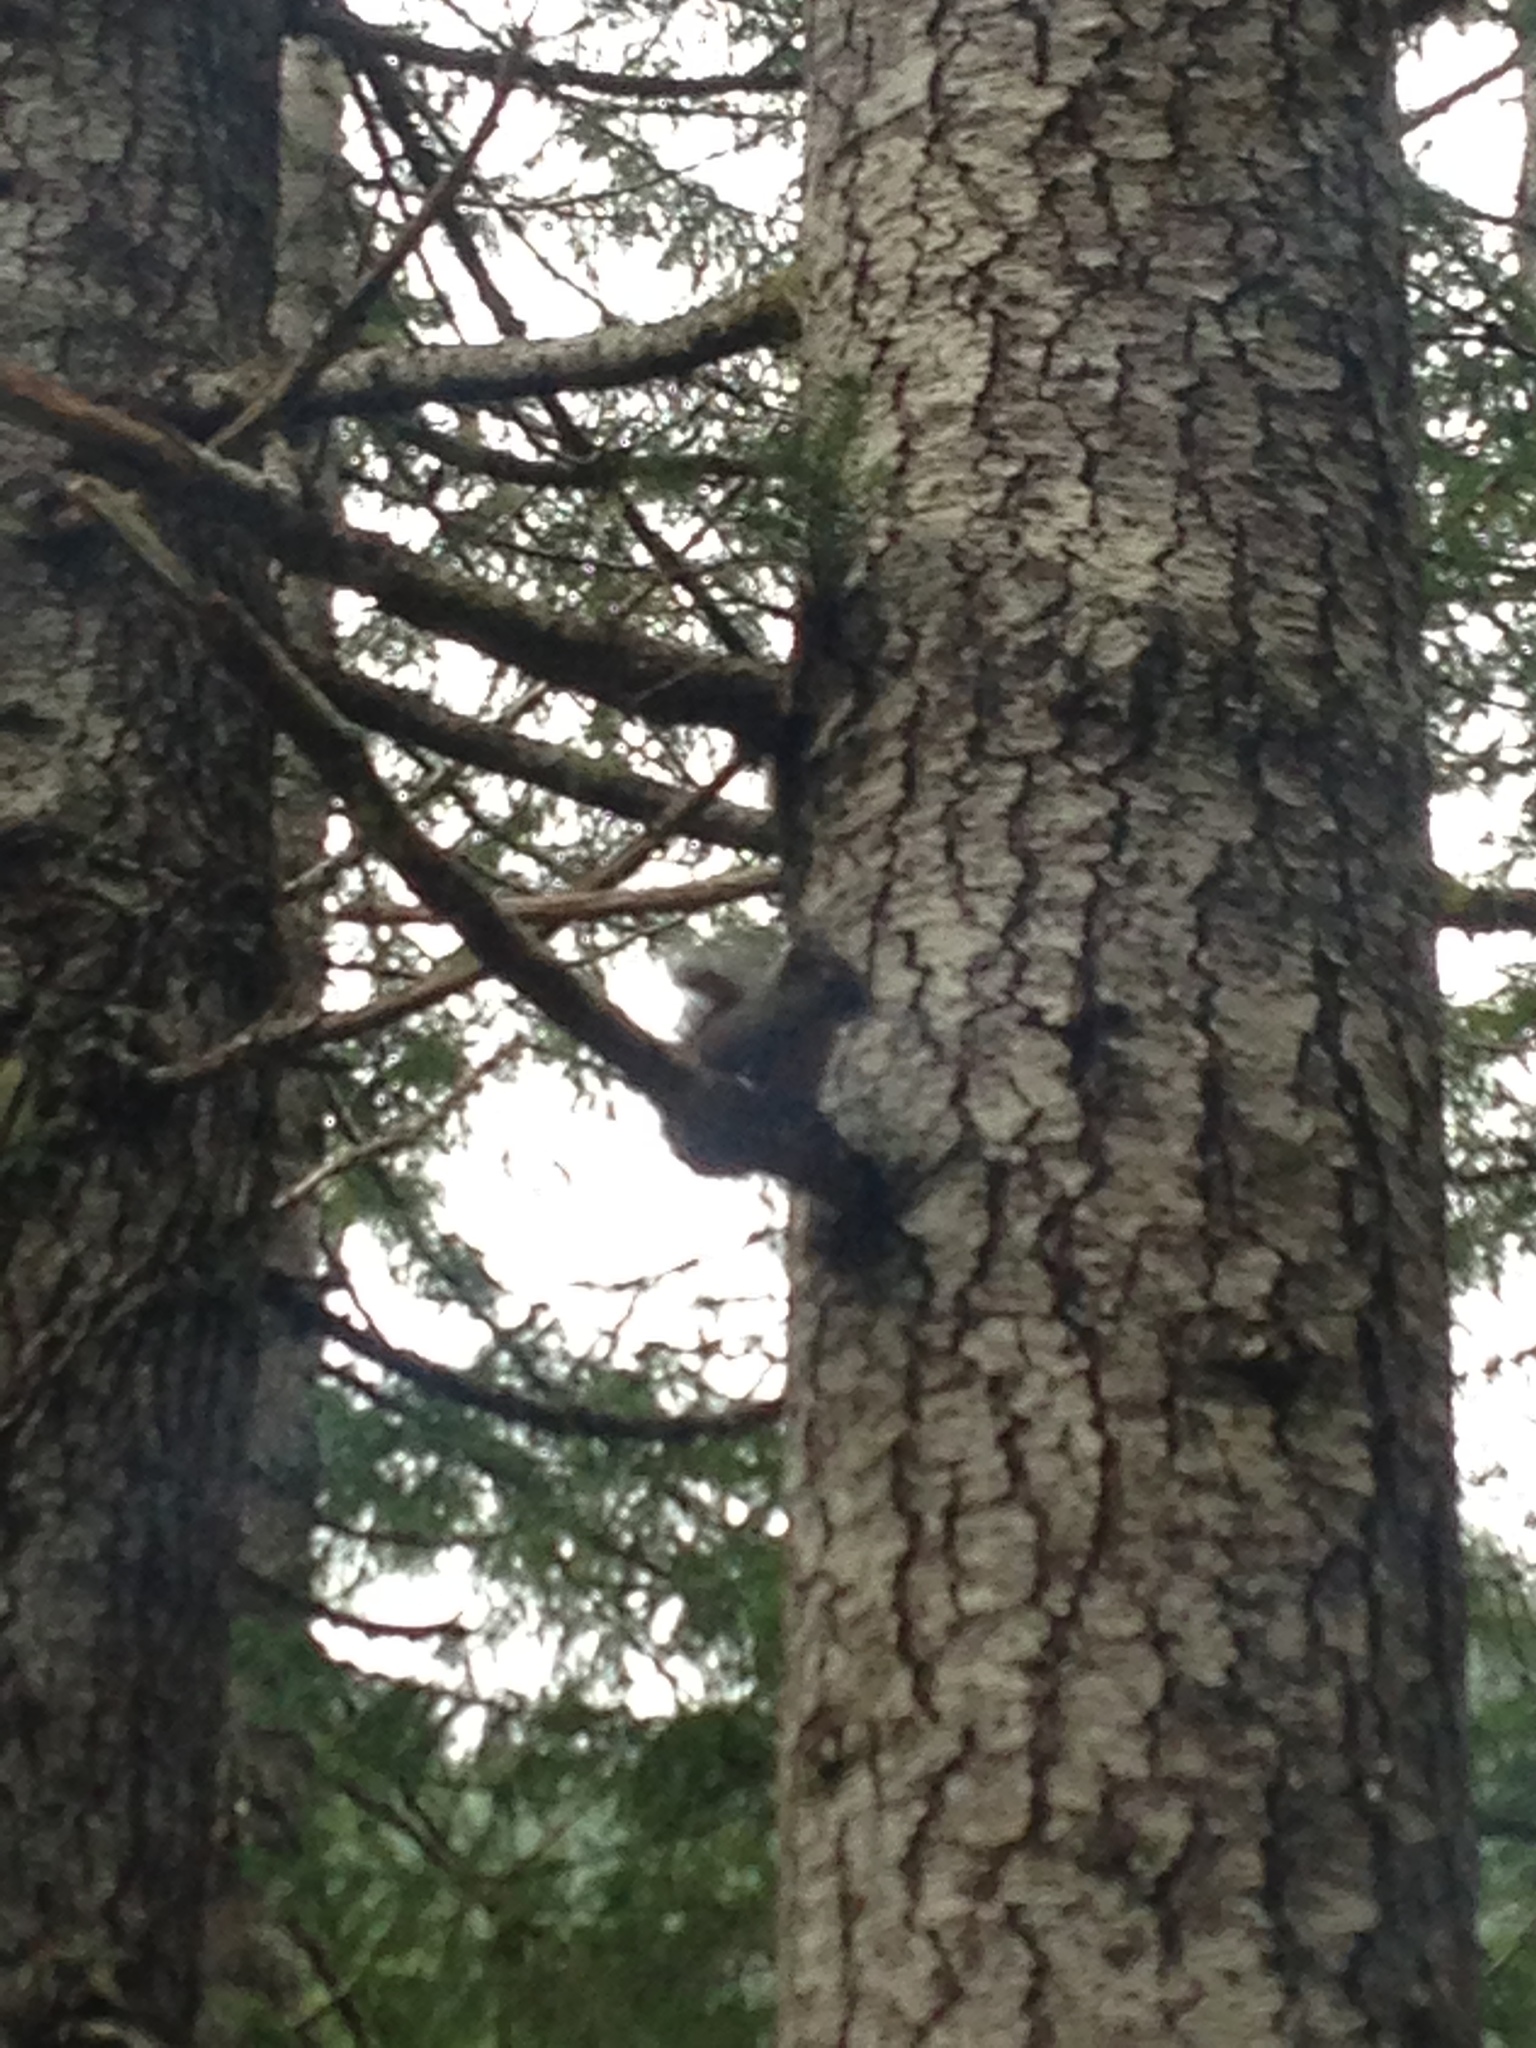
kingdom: Animalia
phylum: Chordata
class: Mammalia
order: Rodentia
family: Sciuridae
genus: Tamiasciurus
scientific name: Tamiasciurus douglasii
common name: Douglas's squirrel
